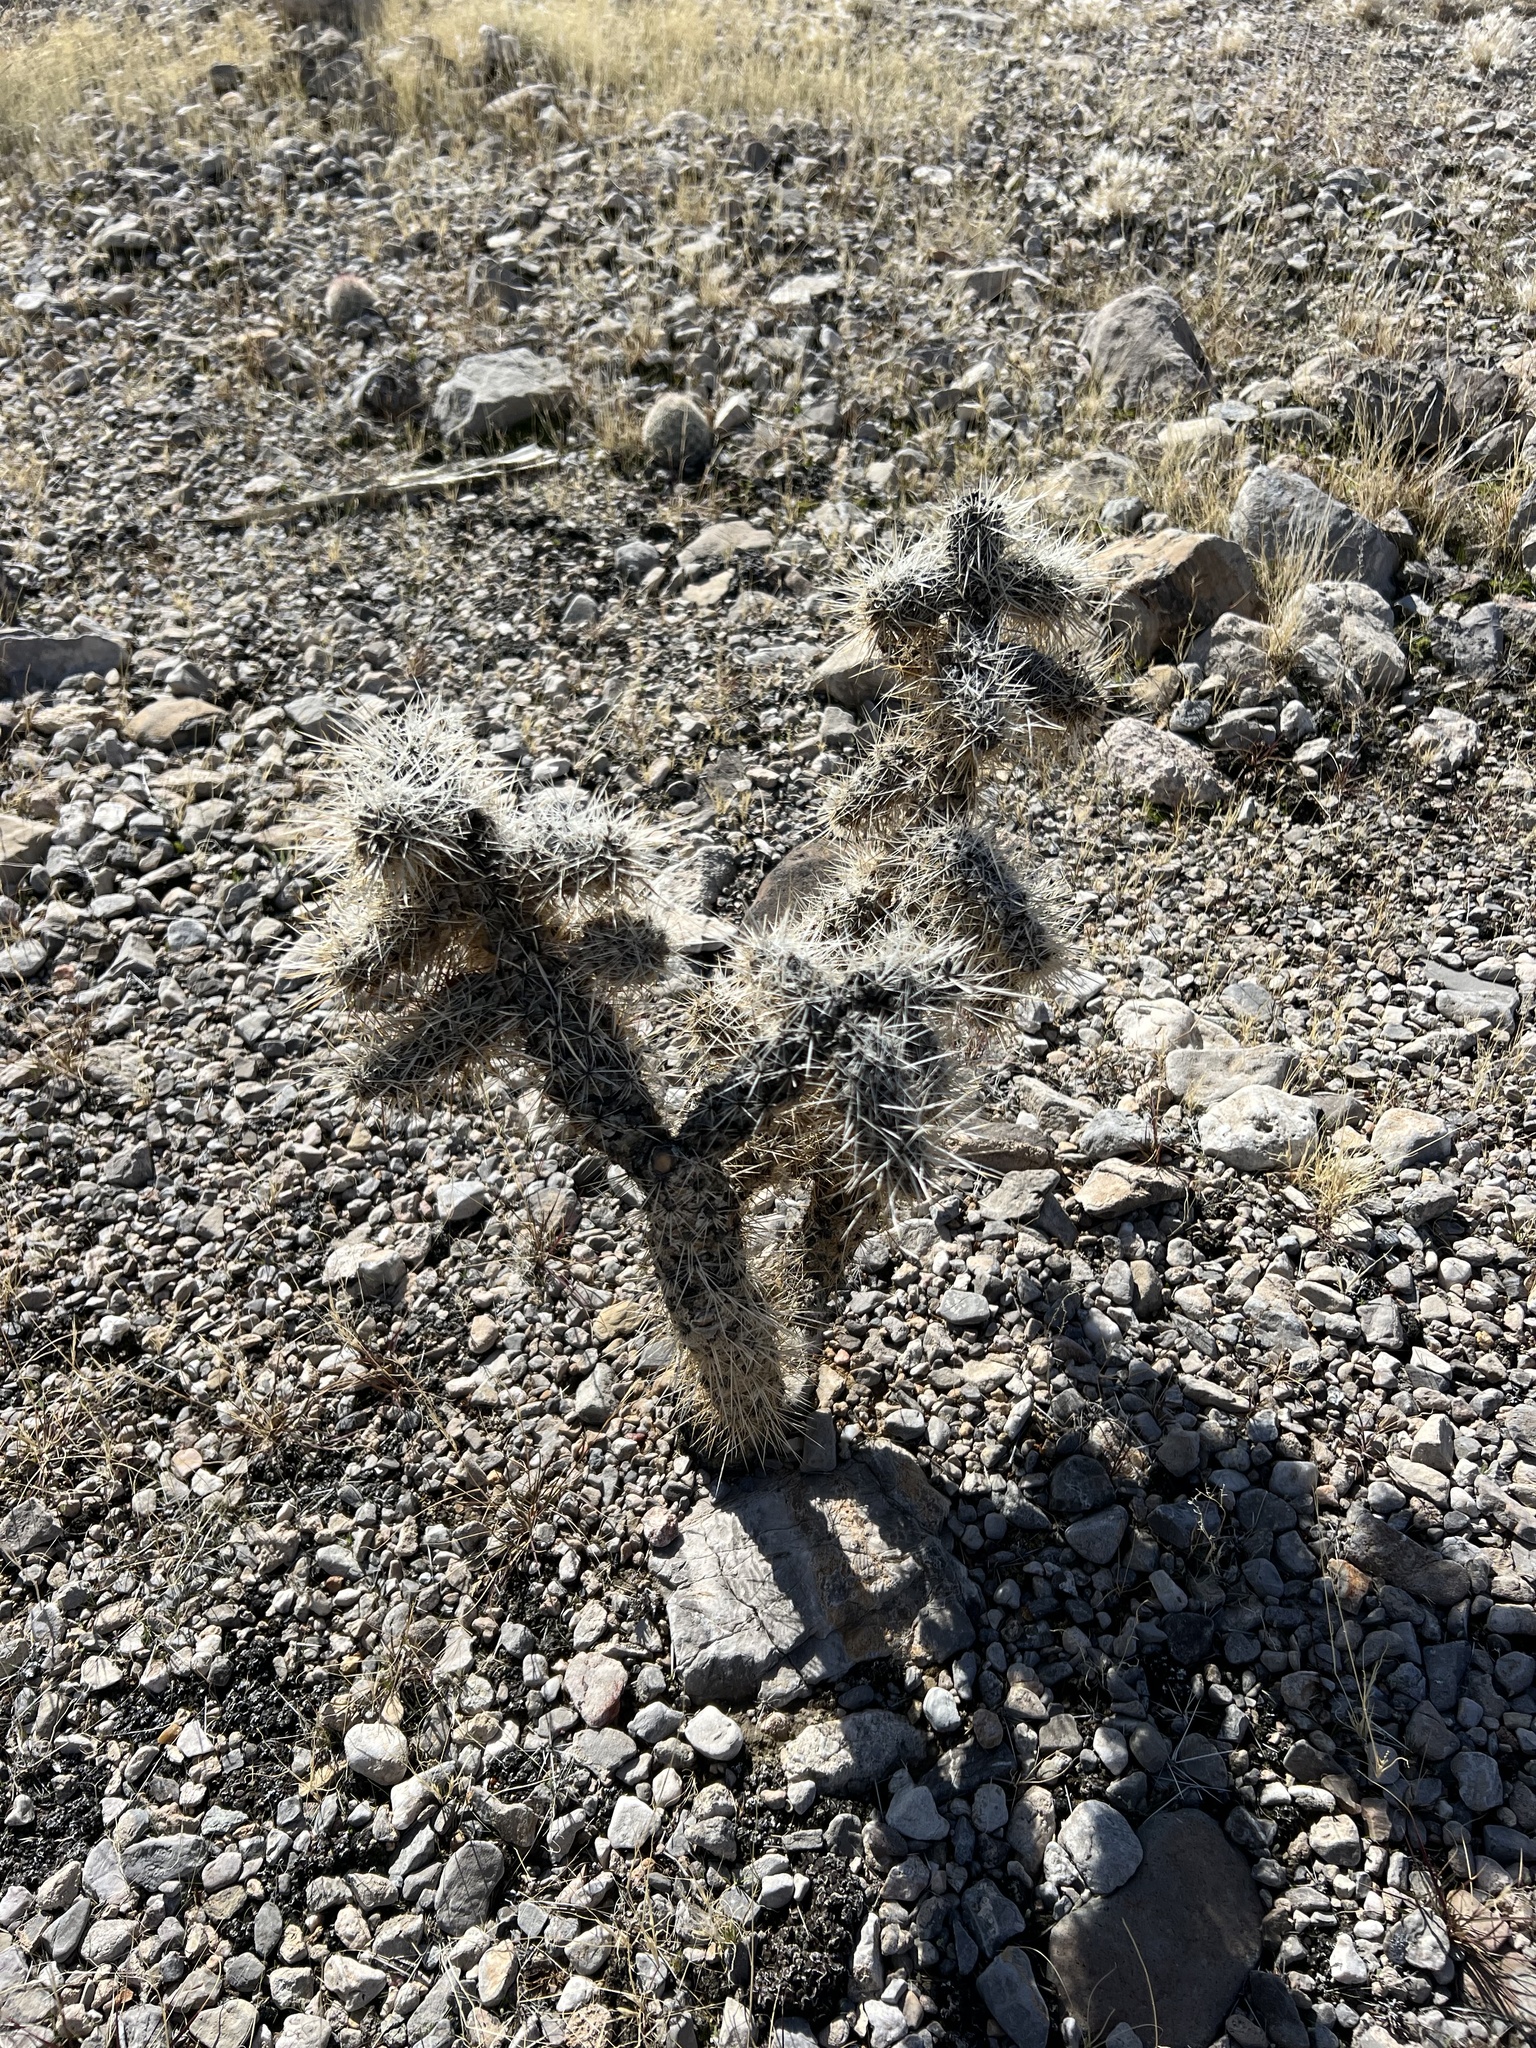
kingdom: Plantae
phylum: Tracheophyta
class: Magnoliopsida
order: Caryophyllales
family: Cactaceae
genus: Cylindropuntia
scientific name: Cylindropuntia echinocarpa
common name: Ground cholla
